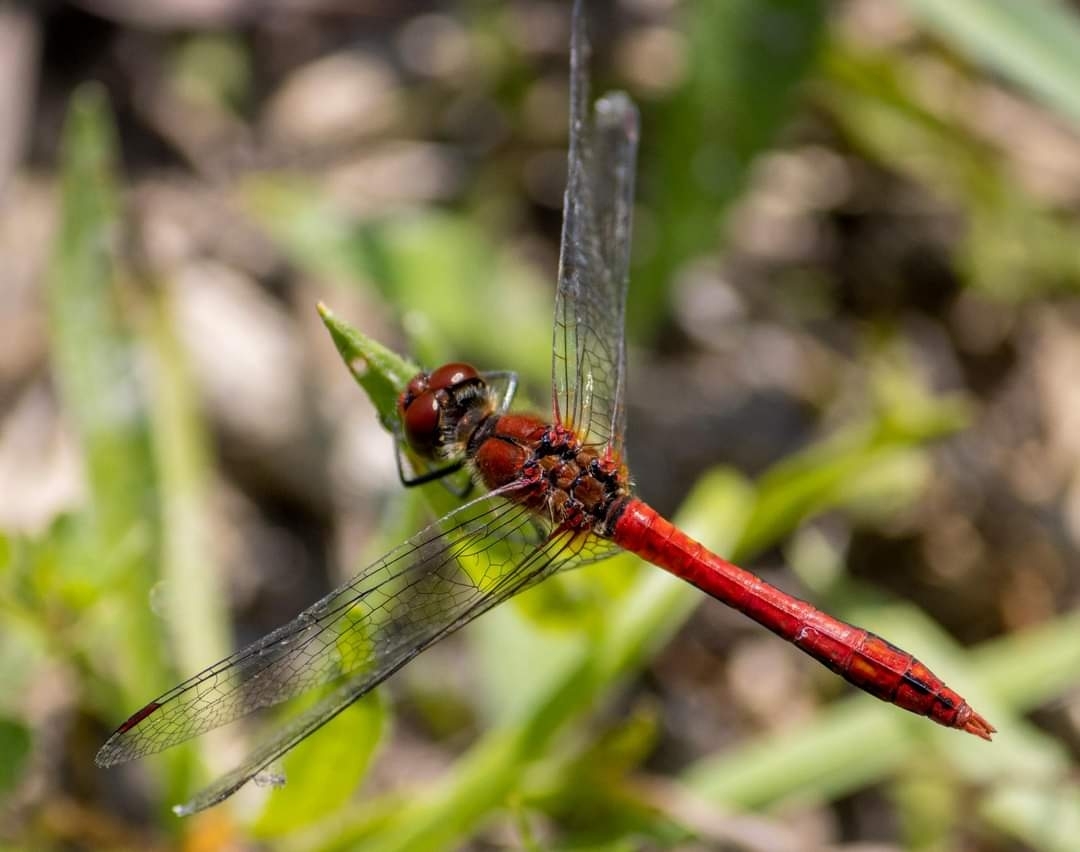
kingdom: Animalia
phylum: Arthropoda
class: Insecta
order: Odonata
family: Libellulidae
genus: Sympetrum
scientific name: Sympetrum sanguineum
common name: Ruddy darter
